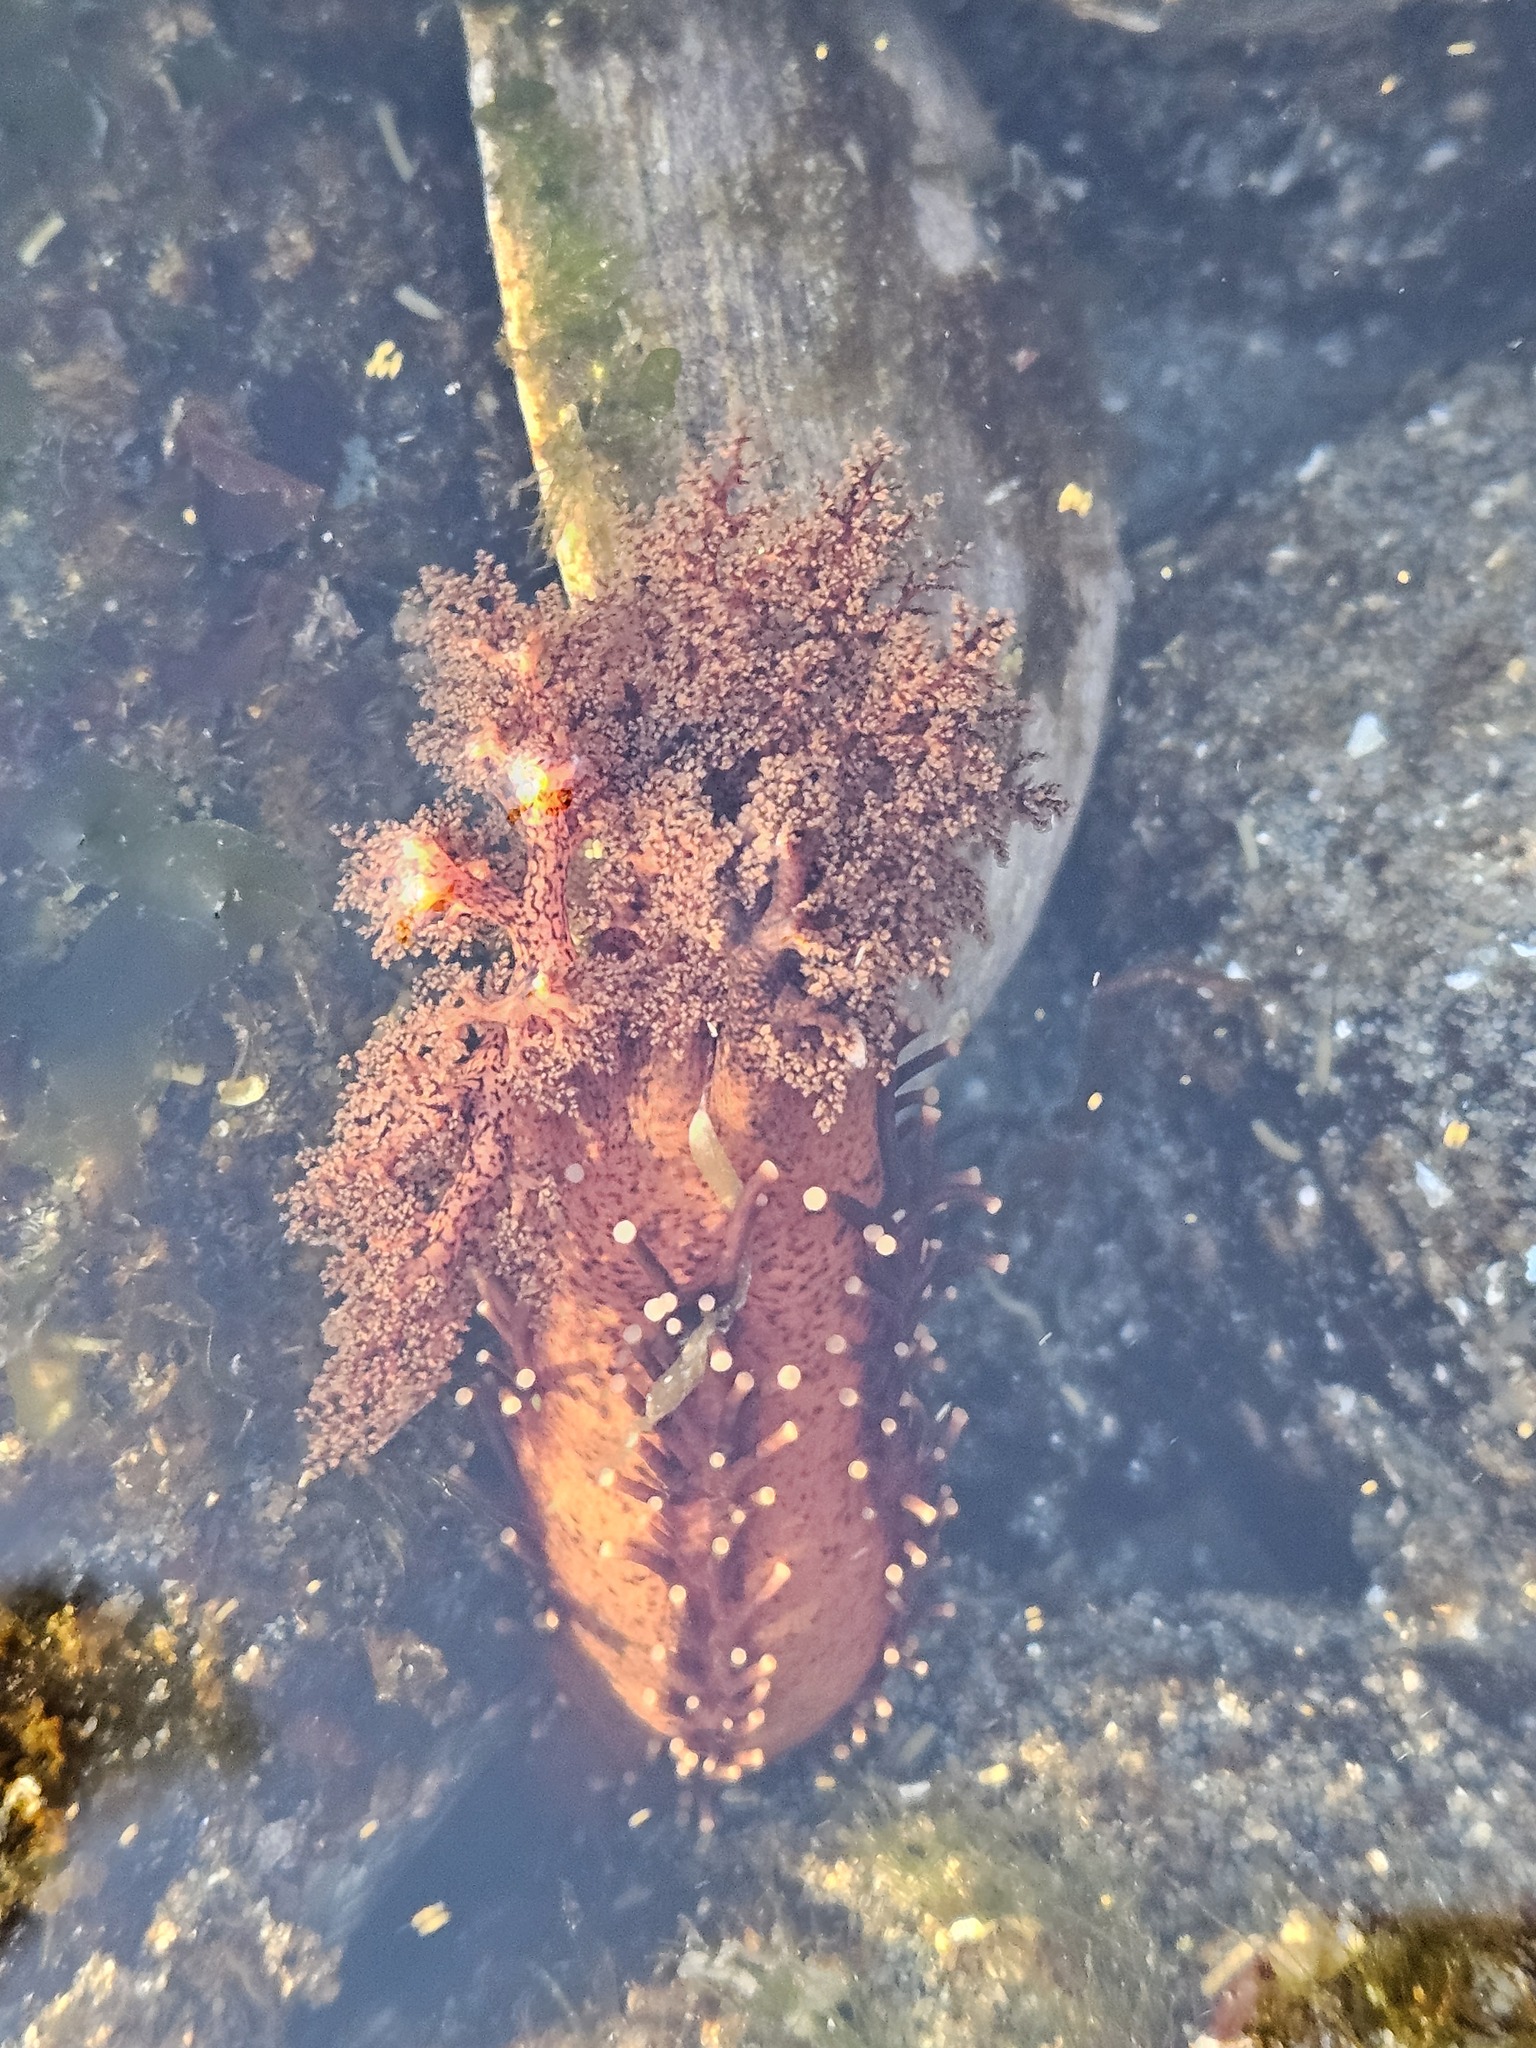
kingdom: Animalia
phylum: Echinodermata
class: Holothuroidea
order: Dendrochirotida
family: Cucumariidae
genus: Cucumaria
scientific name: Cucumaria miniata
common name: Orange sea cucumber
